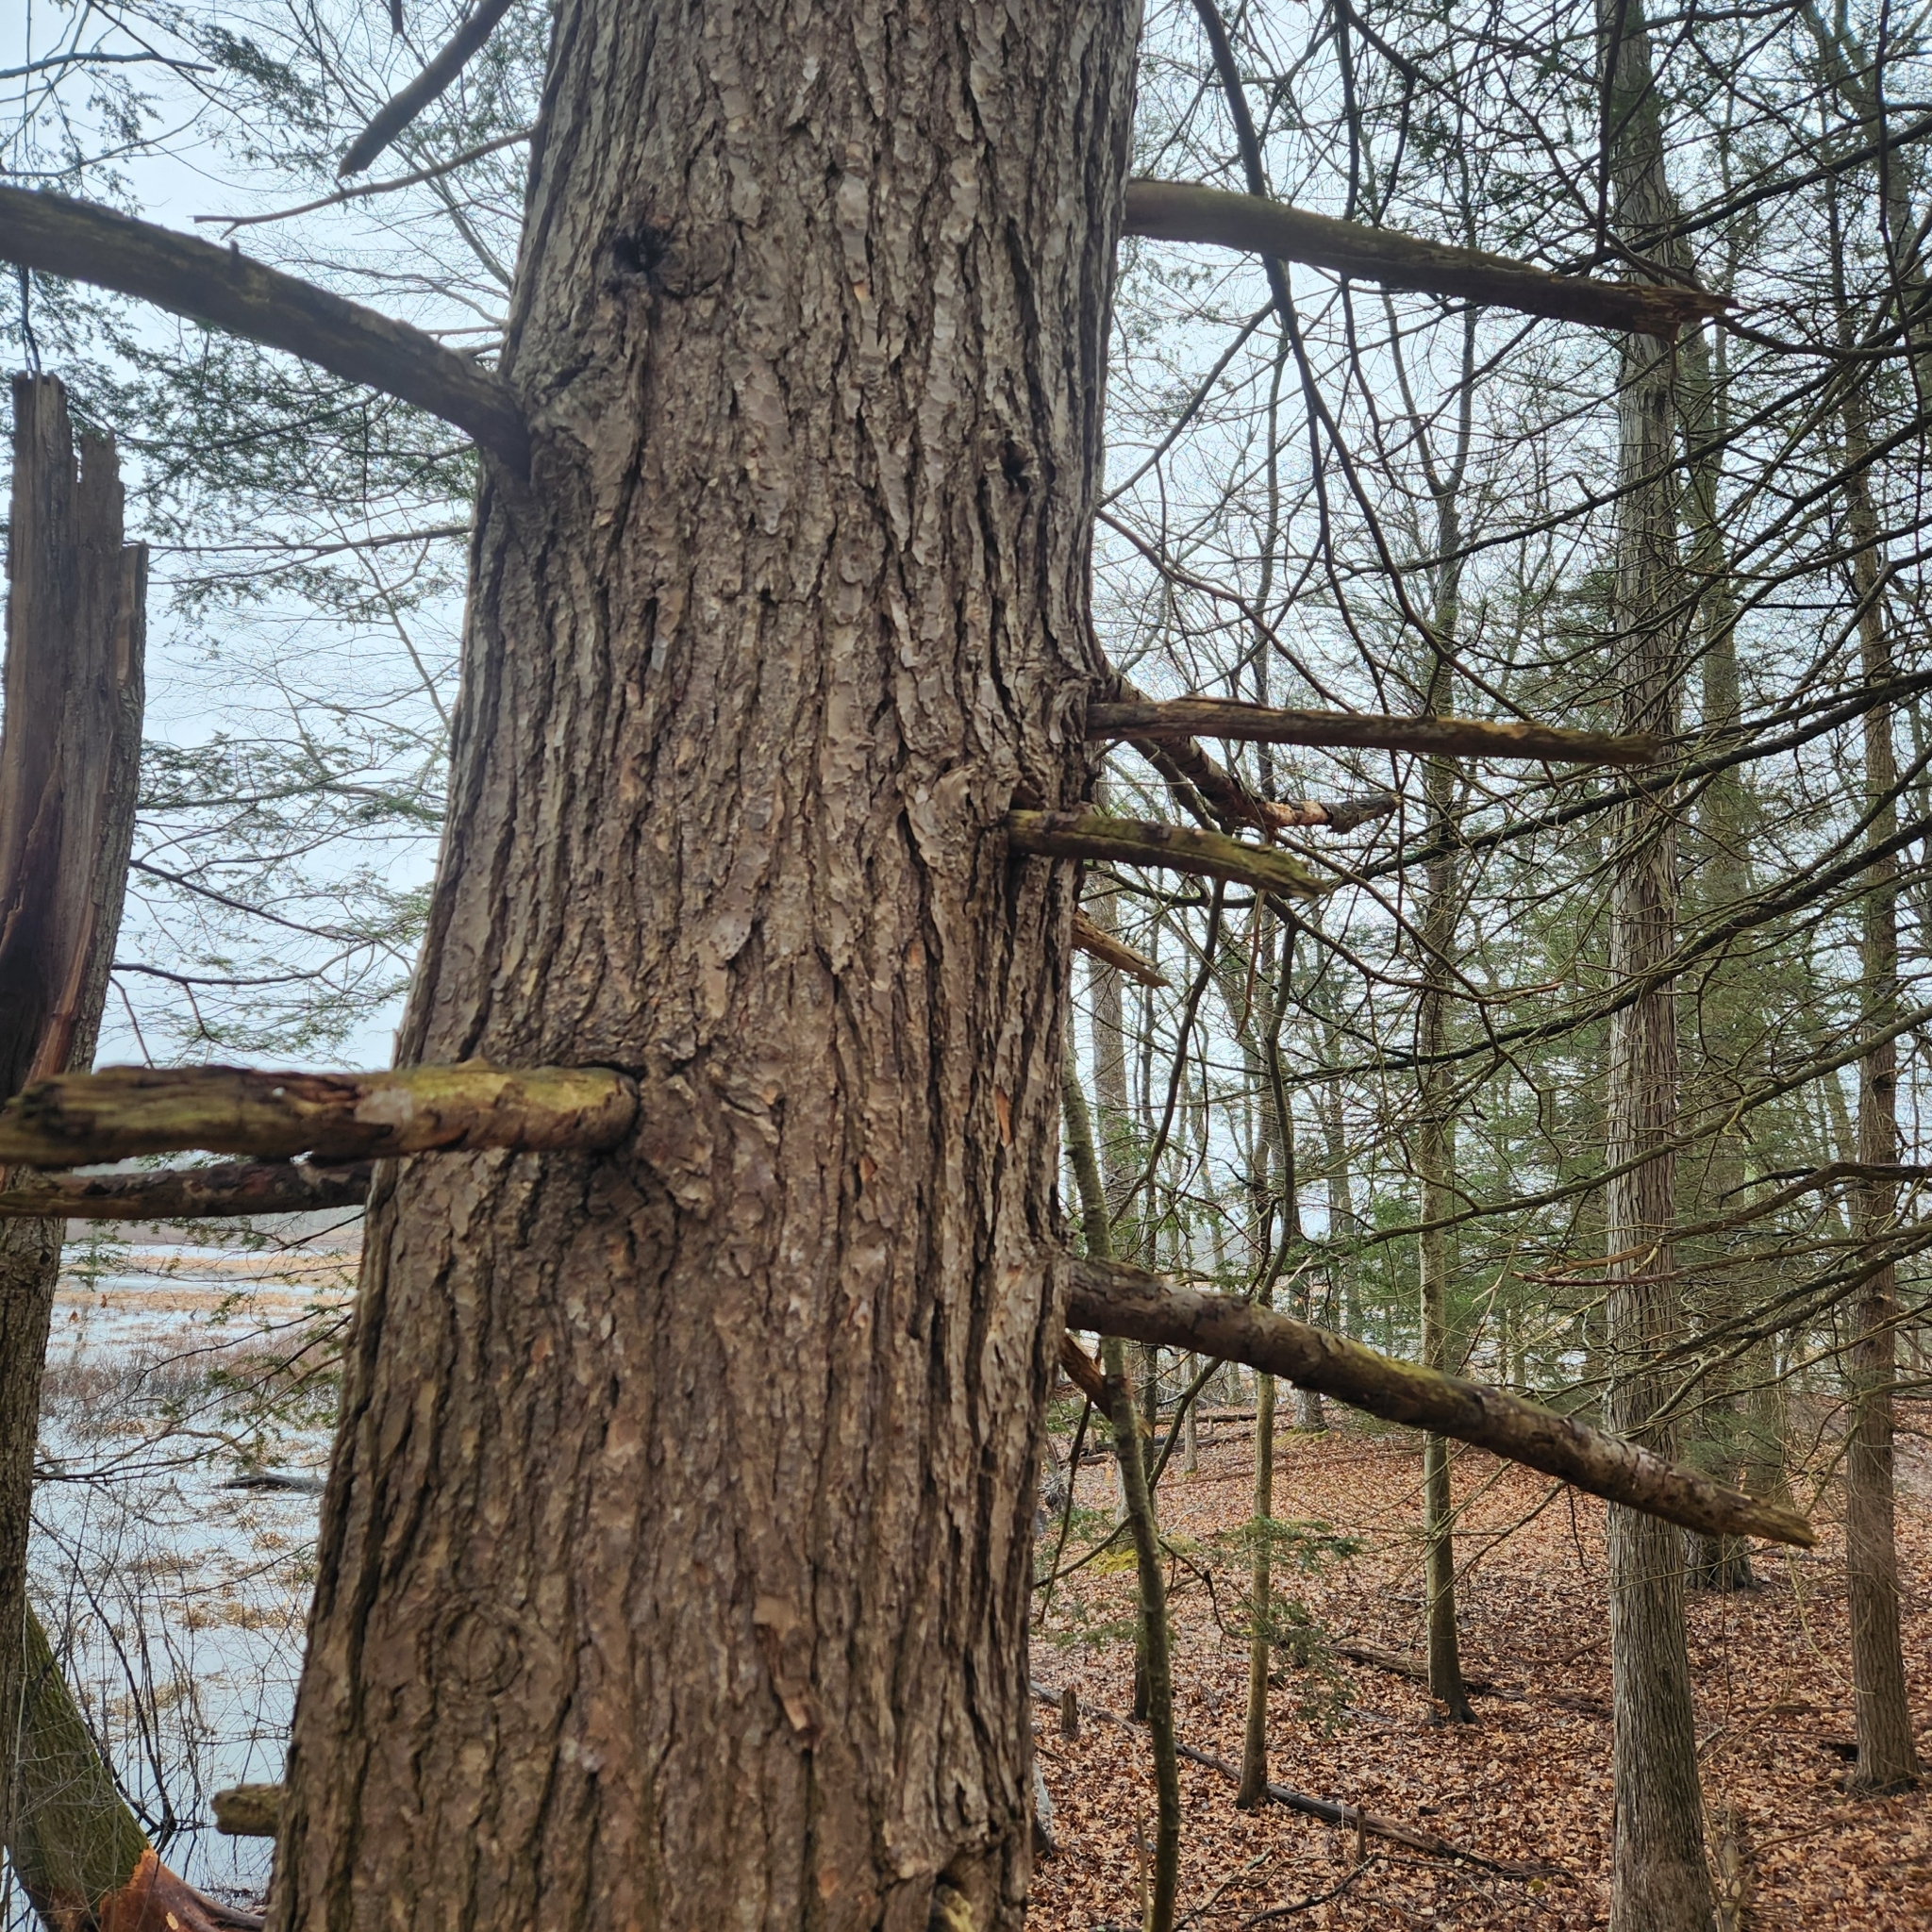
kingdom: Plantae
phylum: Tracheophyta
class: Pinopsida
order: Pinales
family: Pinaceae
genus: Tsuga
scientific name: Tsuga canadensis
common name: Eastern hemlock
